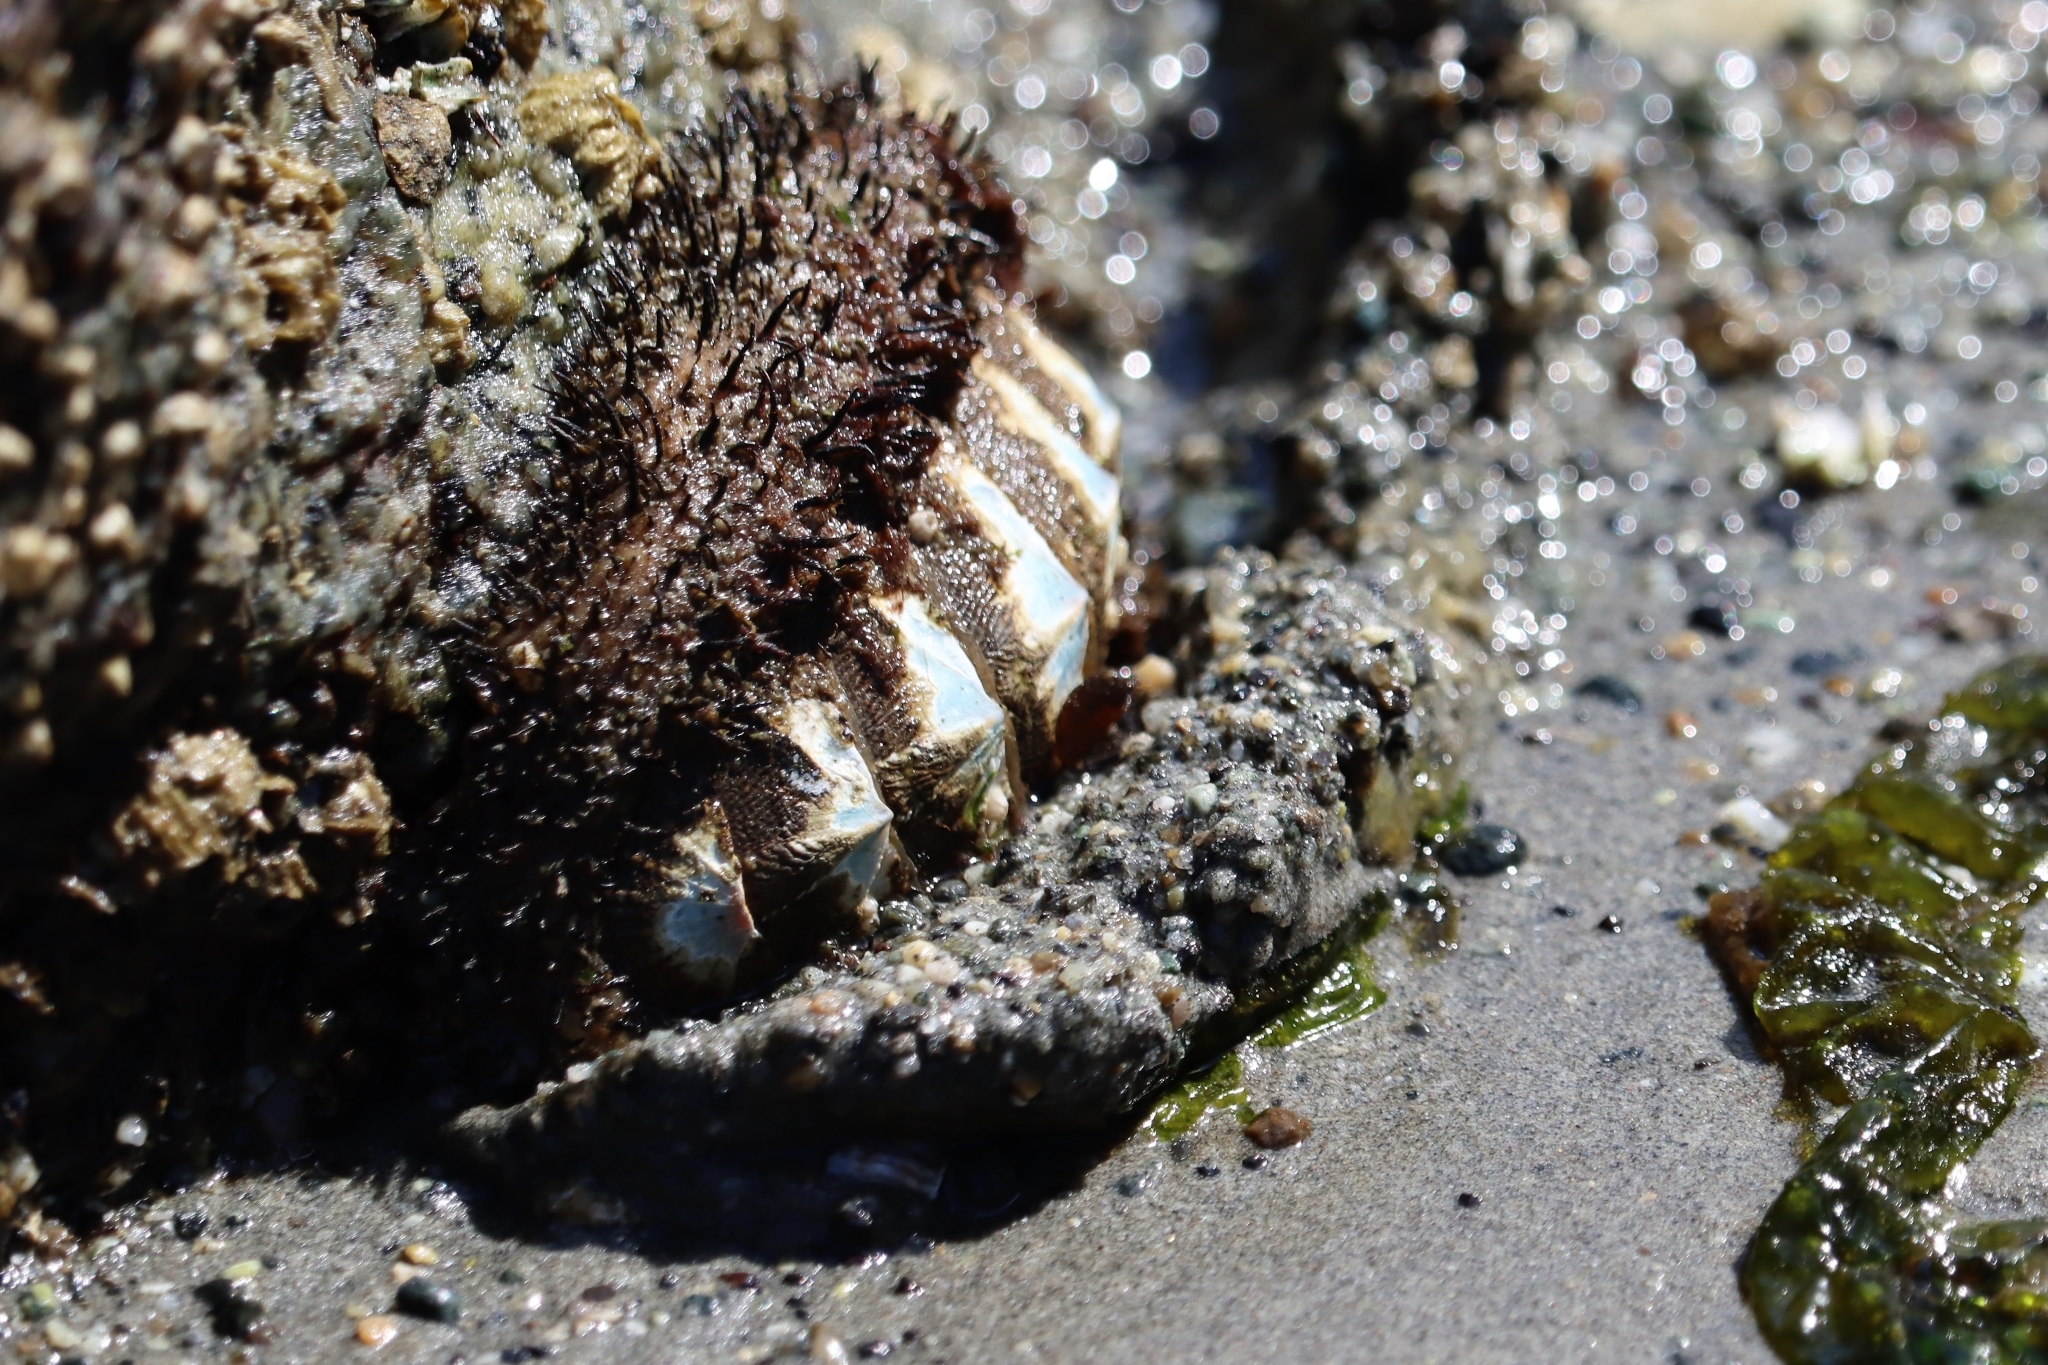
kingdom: Animalia
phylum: Mollusca
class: Polyplacophora
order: Chitonida
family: Mopaliidae
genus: Mopalia
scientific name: Mopalia muscosa
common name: Mossy chiton
